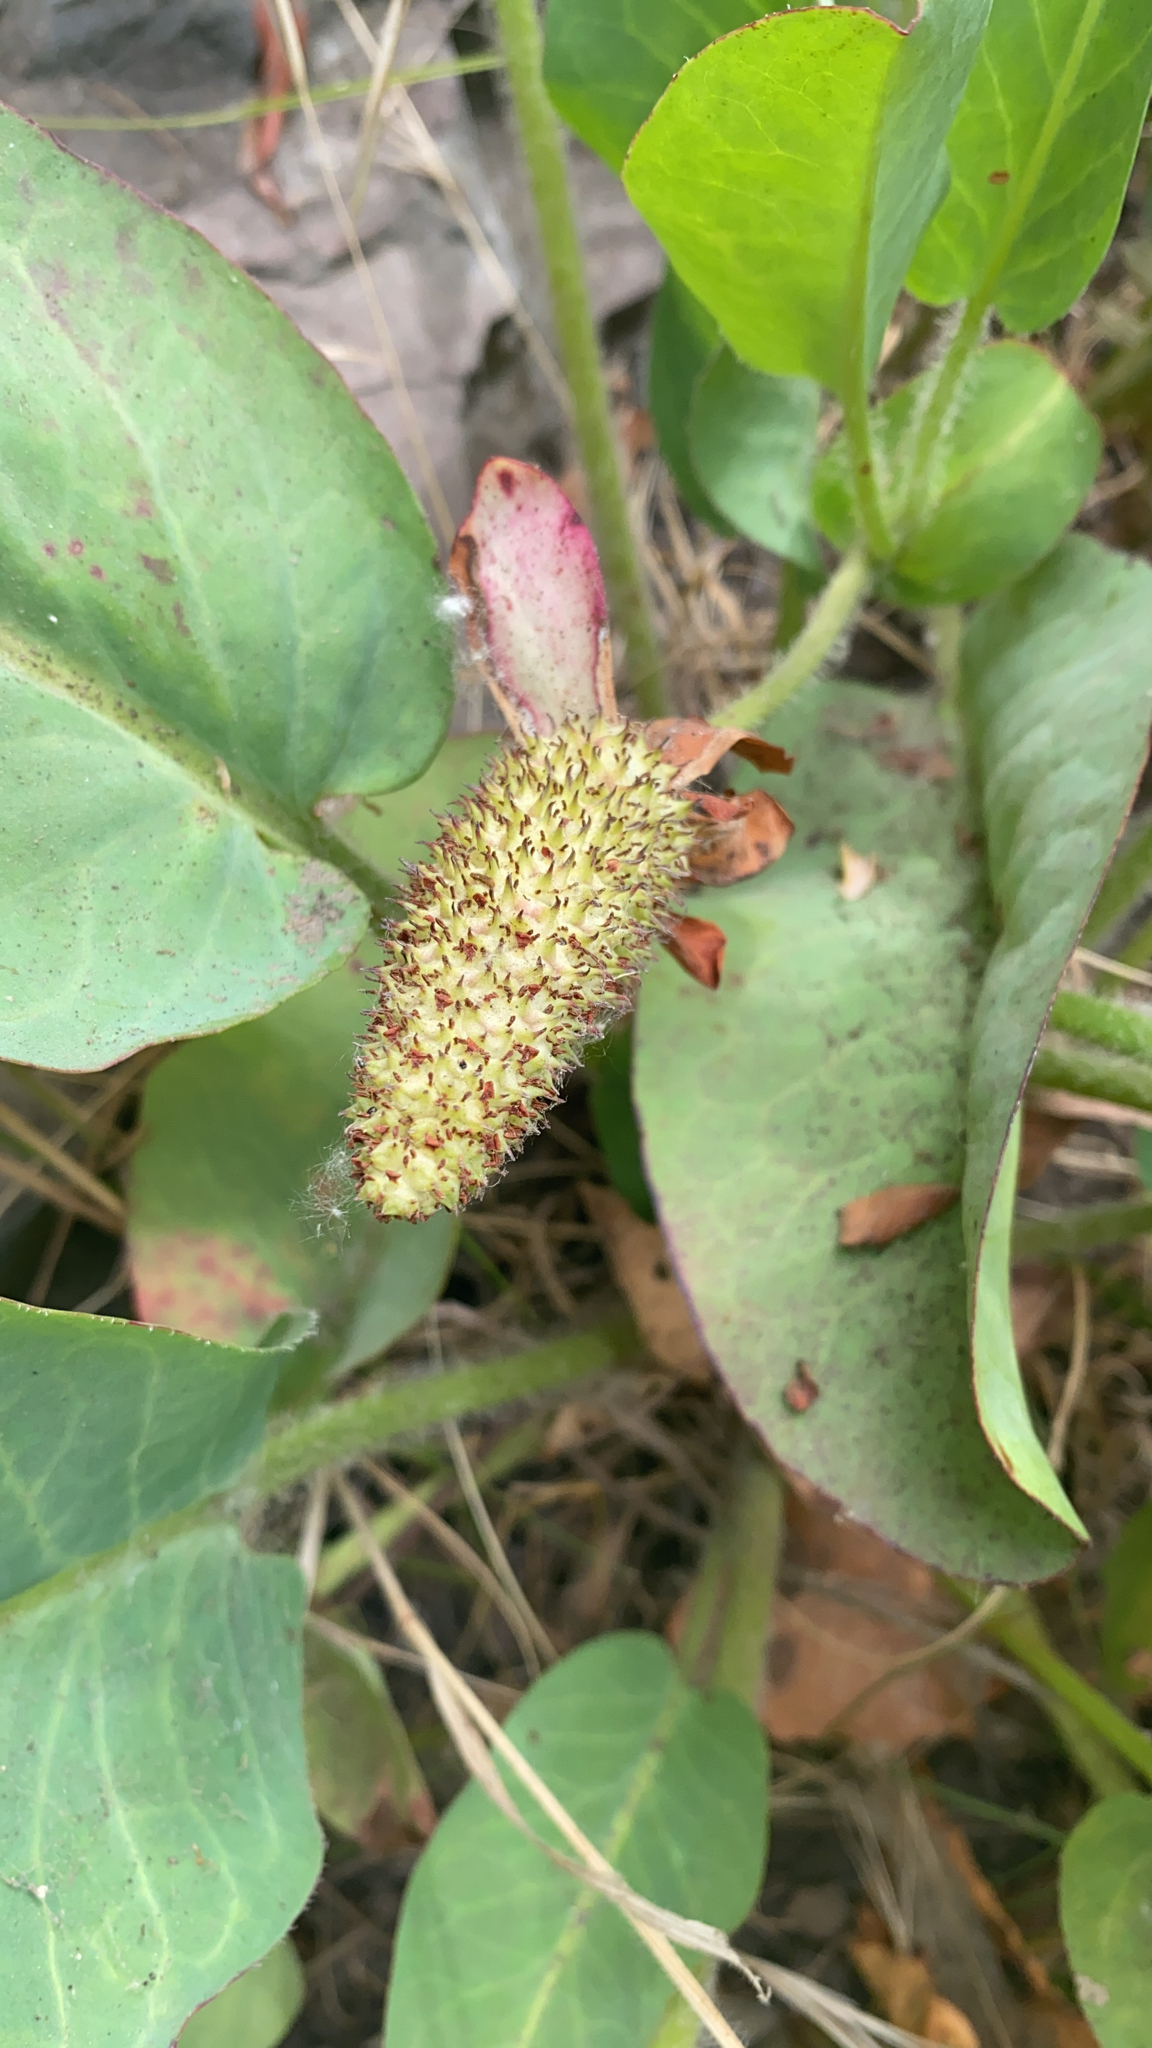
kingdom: Plantae
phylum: Tracheophyta
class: Magnoliopsida
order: Piperales
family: Saururaceae
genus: Anemopsis
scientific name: Anemopsis californica
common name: Apache-beads
